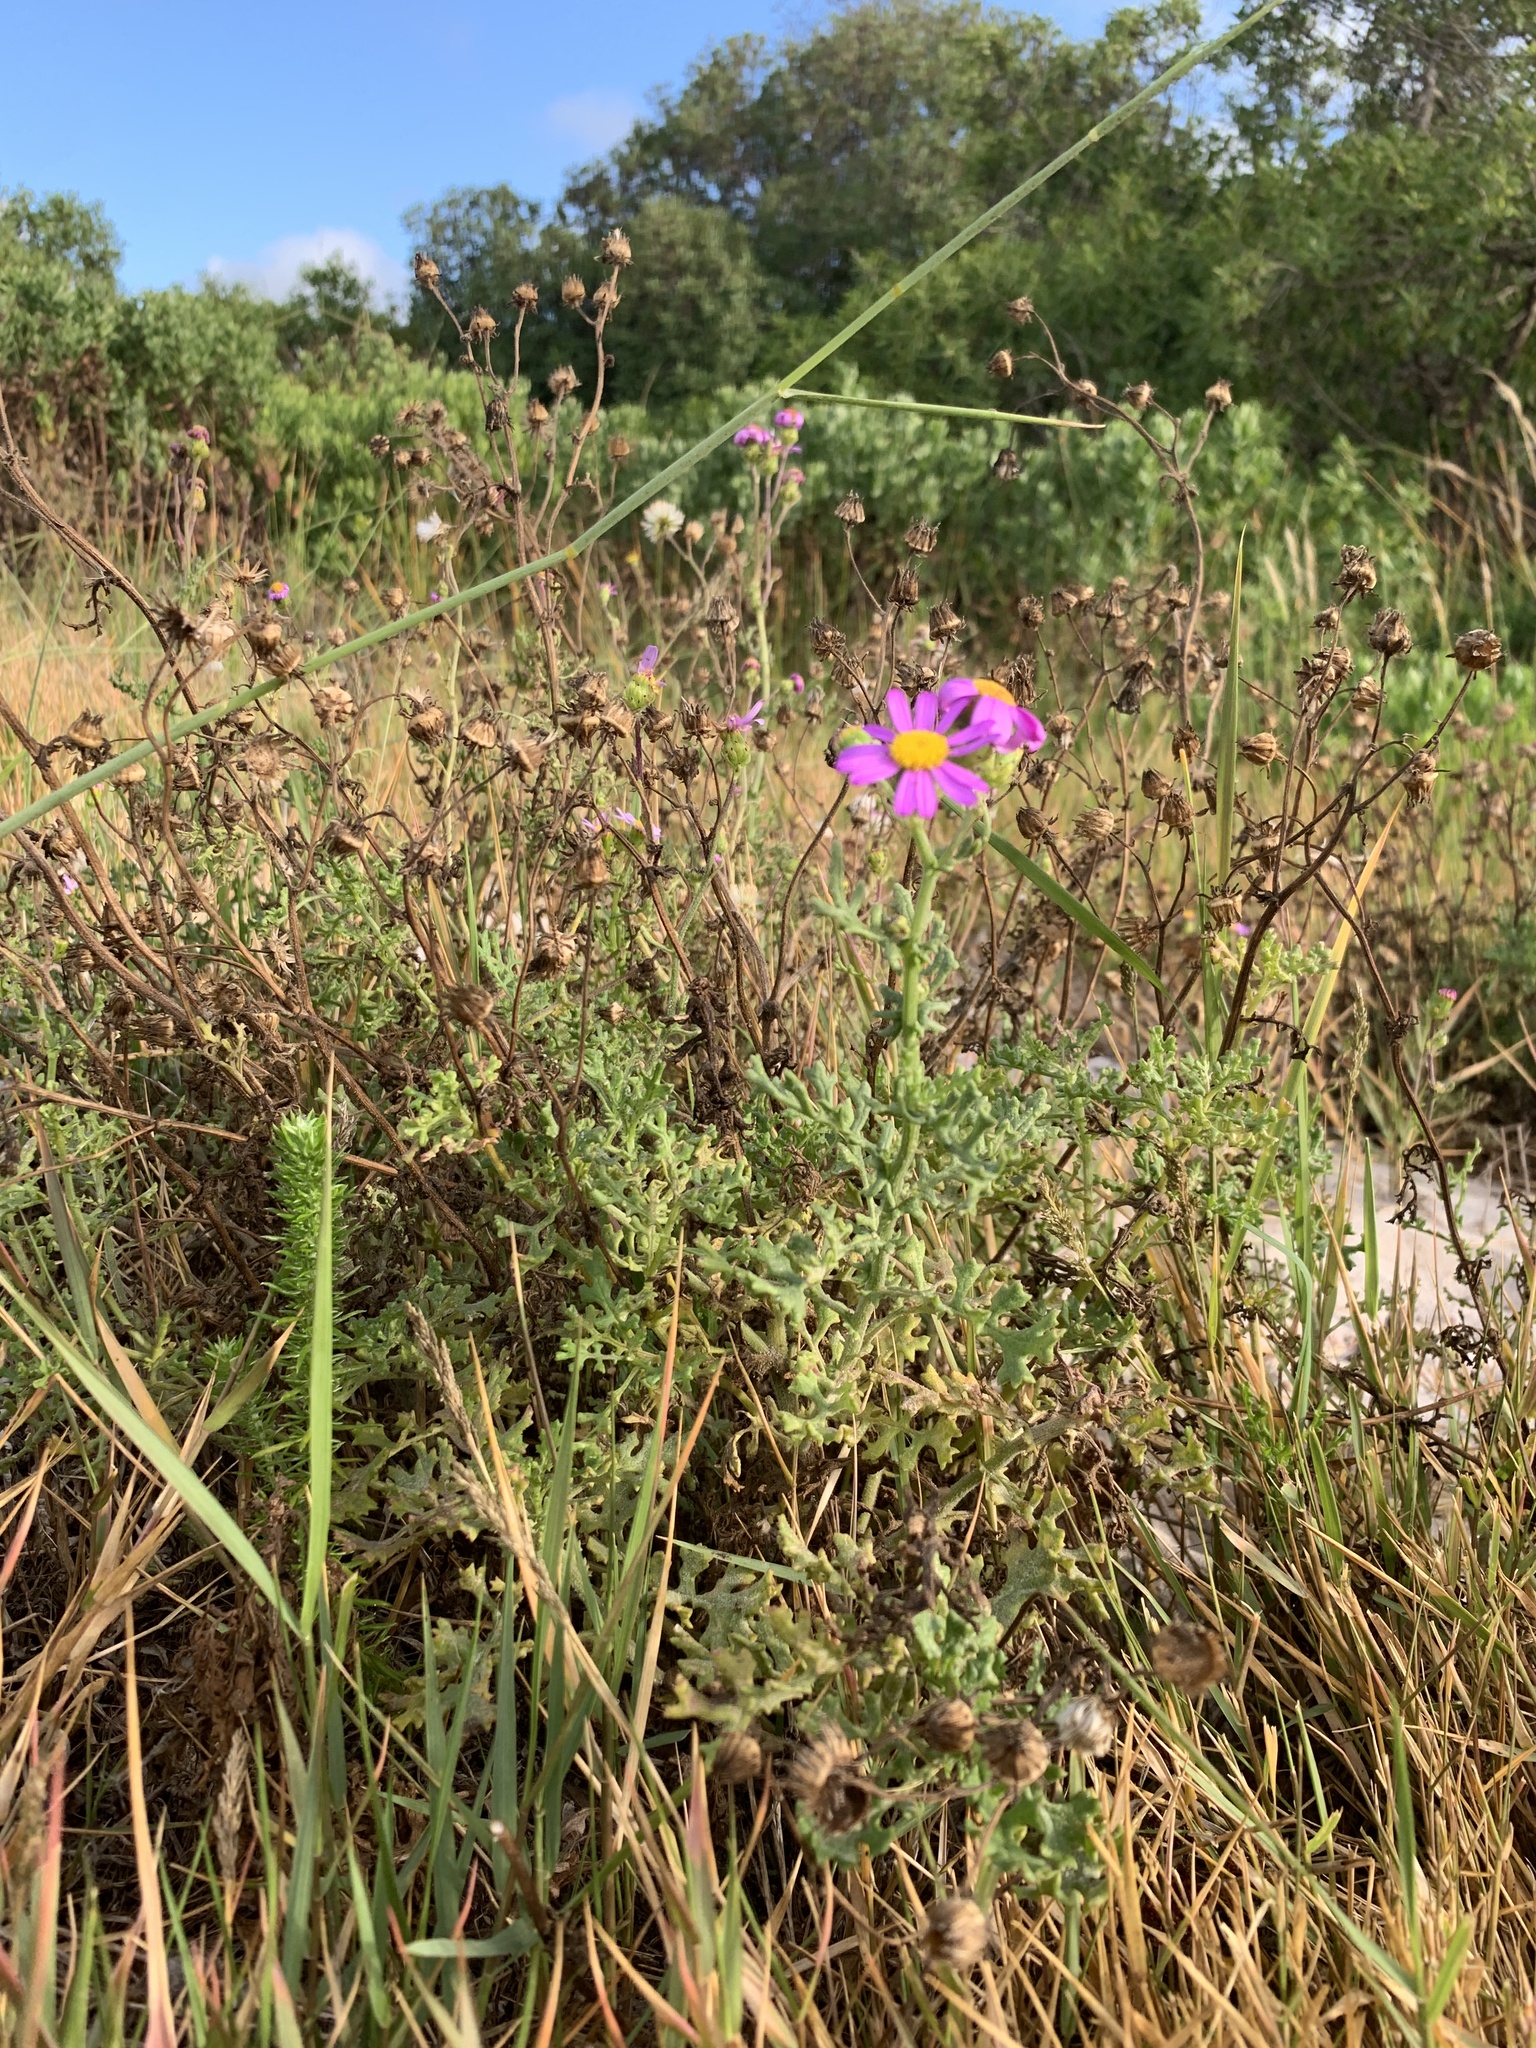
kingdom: Plantae
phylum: Tracheophyta
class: Magnoliopsida
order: Asterales
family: Asteraceae
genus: Senecio
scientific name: Senecio elegans
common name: Purple groundsel
